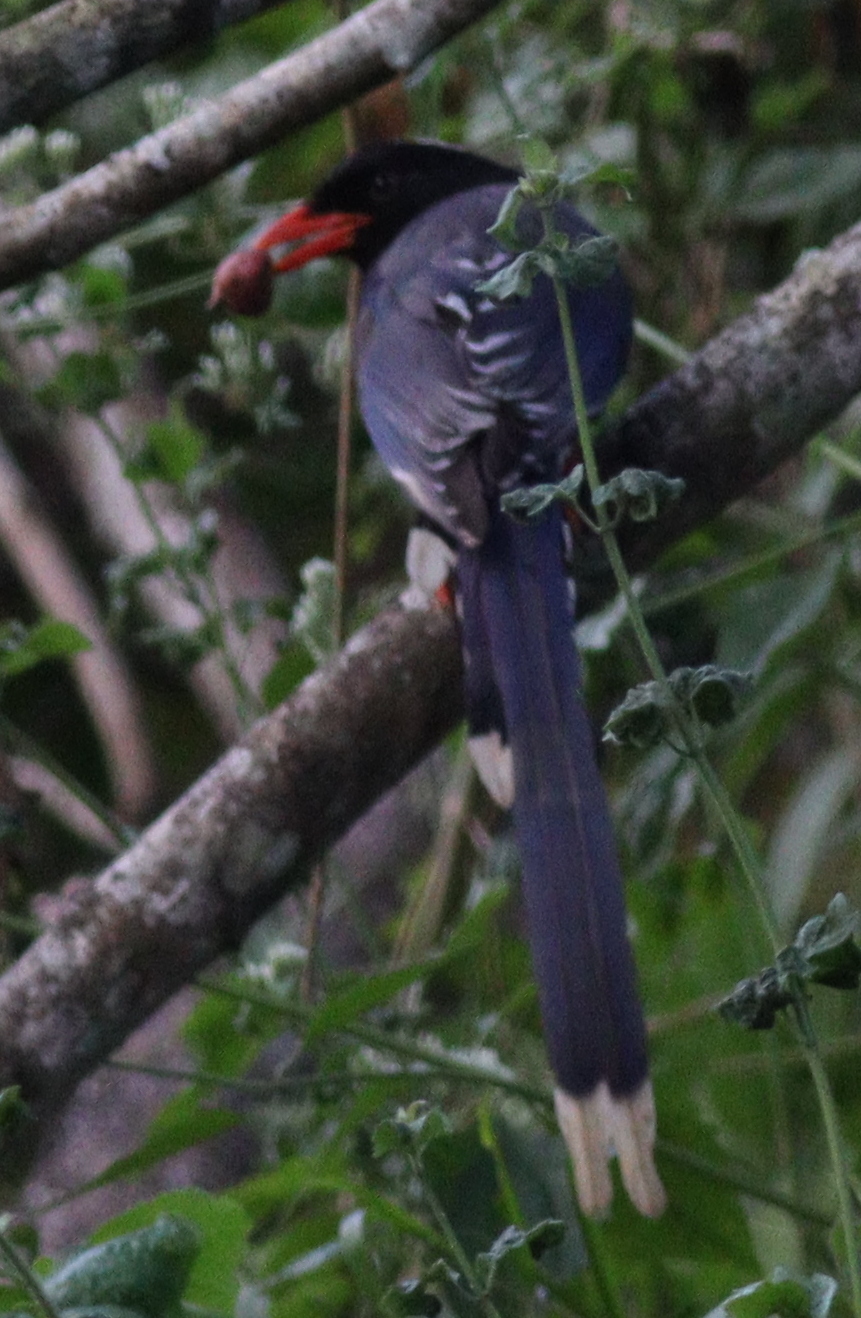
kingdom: Animalia
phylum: Chordata
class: Aves
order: Passeriformes
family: Corvidae
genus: Urocissa
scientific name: Urocissa erythroryncha
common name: Red-billed blue magpie
